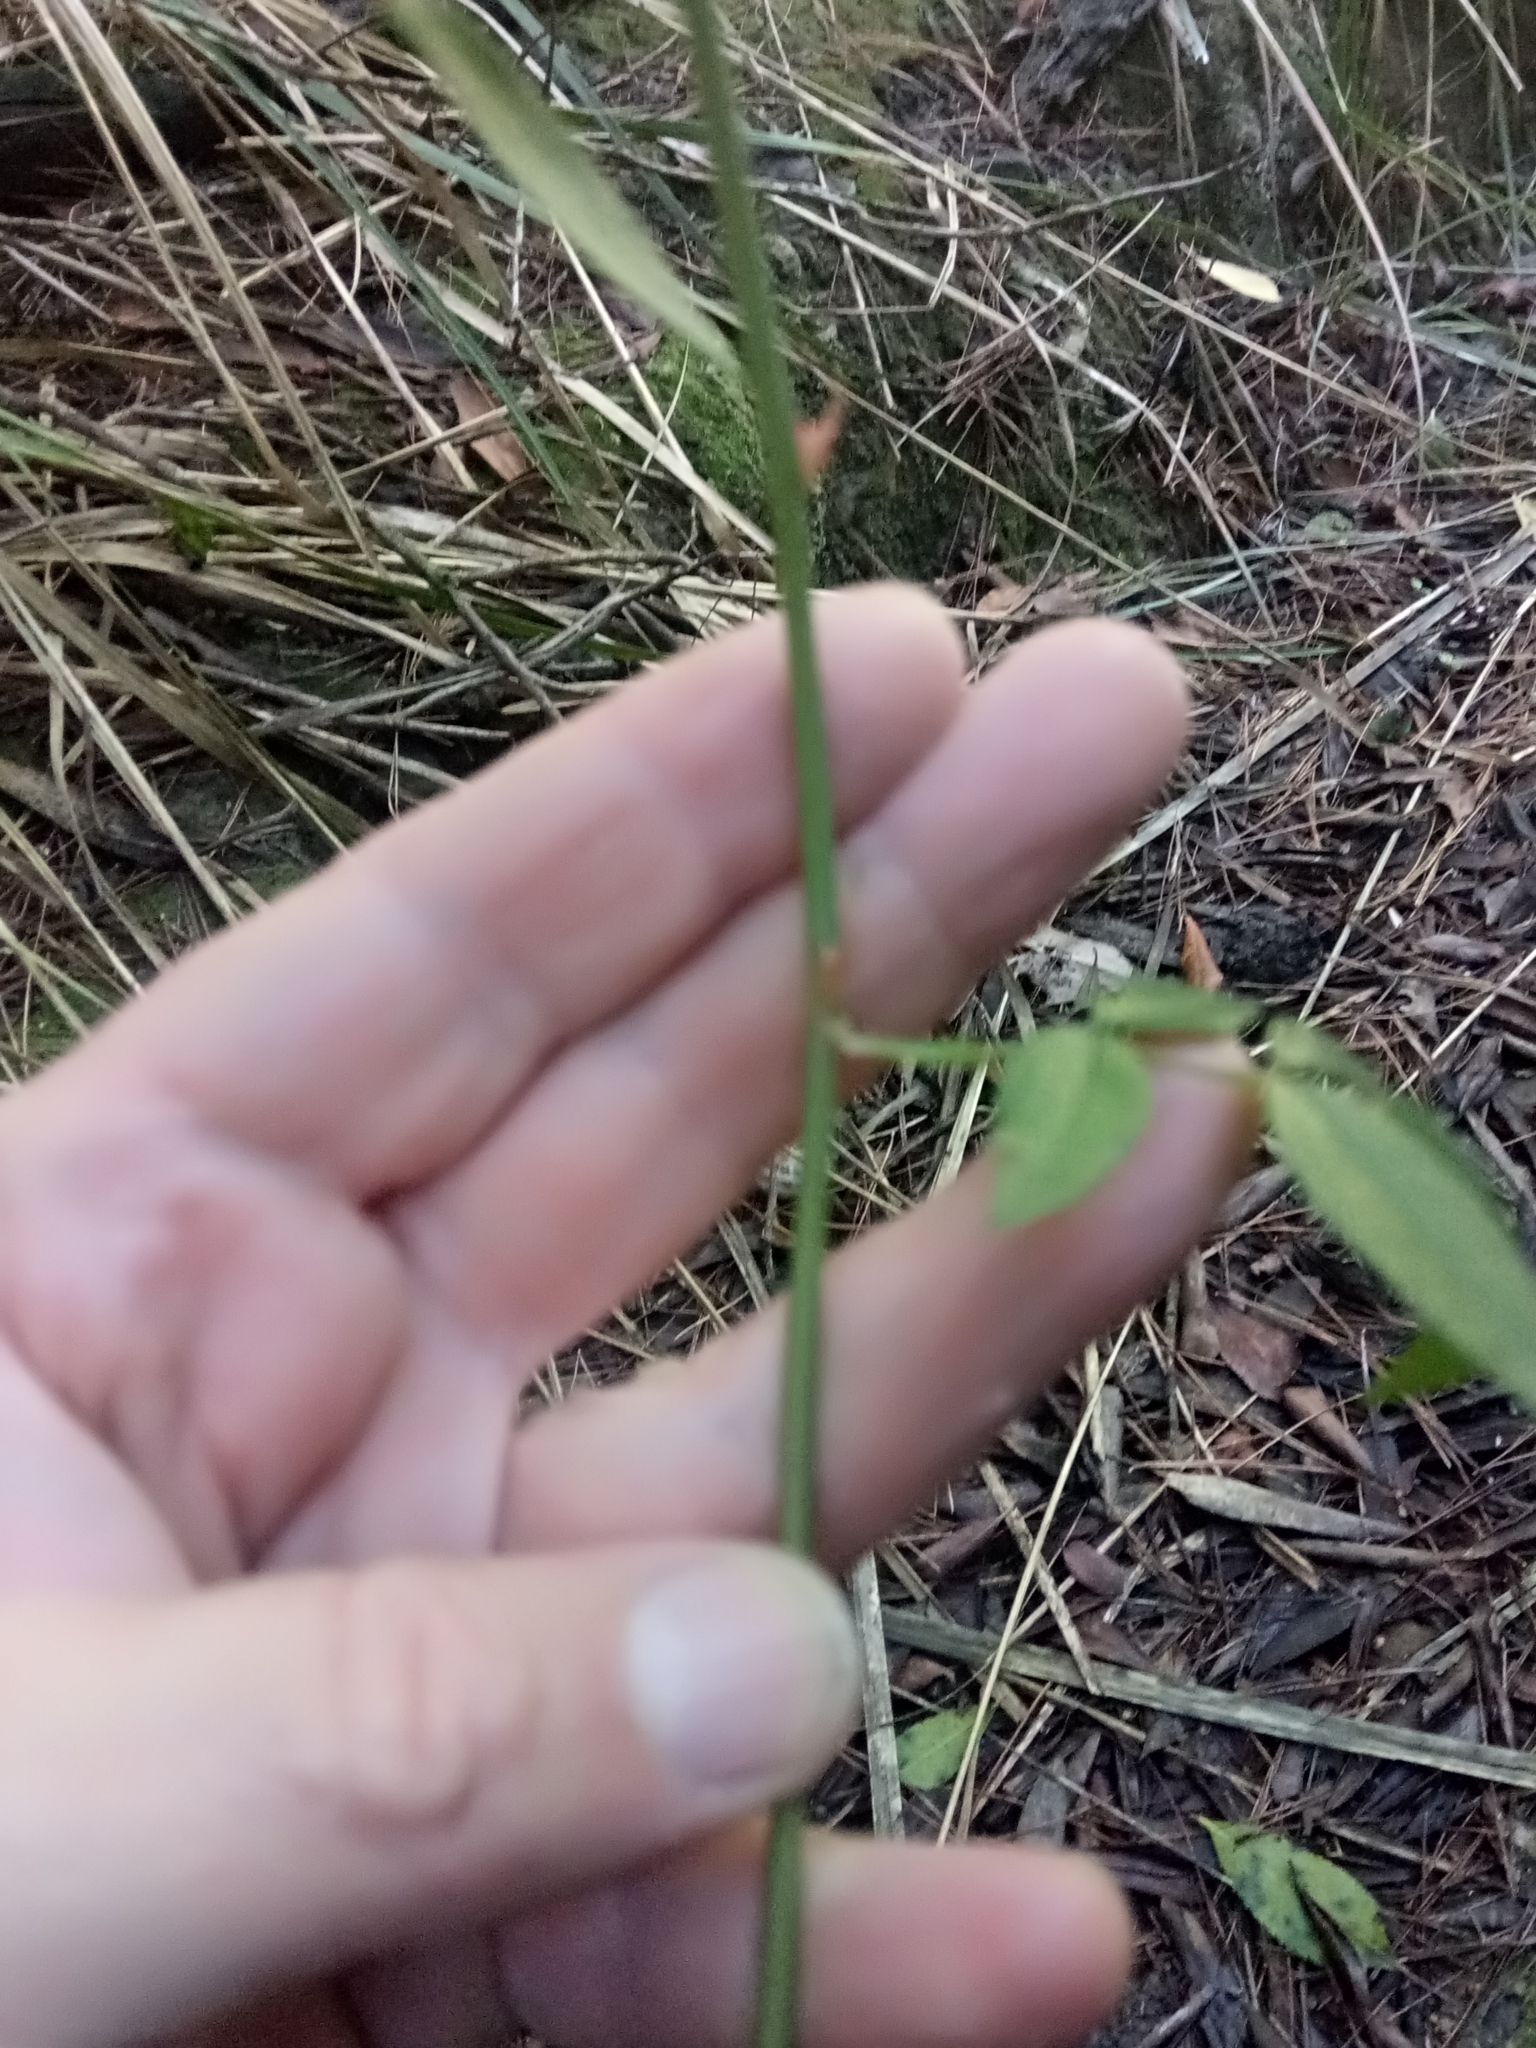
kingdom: Plantae
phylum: Tracheophyta
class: Magnoliopsida
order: Rosales
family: Rosaceae
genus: Rosa
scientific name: Rosa sempervirens
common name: Evergreen rose
